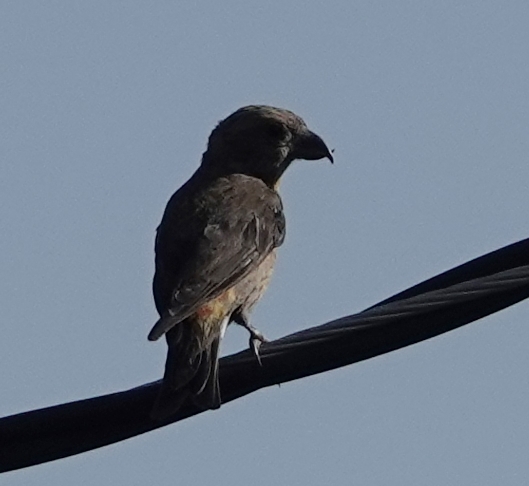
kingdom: Animalia
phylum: Chordata
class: Aves
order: Passeriformes
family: Fringillidae
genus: Loxia
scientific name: Loxia curvirostra
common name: Red crossbill
